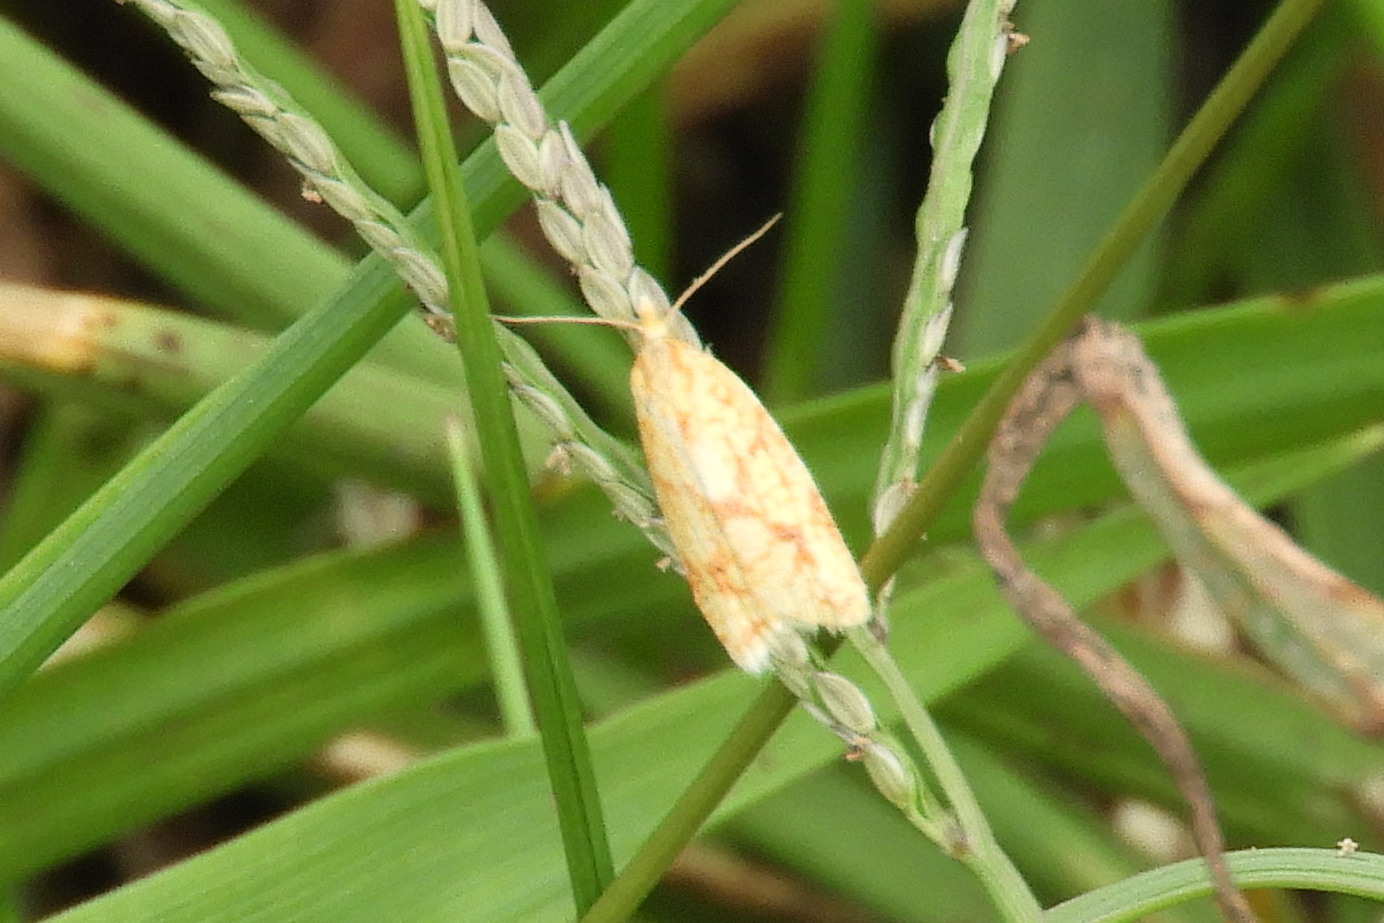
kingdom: Animalia
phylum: Arthropoda
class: Insecta
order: Lepidoptera
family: Tortricidae
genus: Sparganothis
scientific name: Sparganothis sulfureana
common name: Sparganothis fruitworm moth
